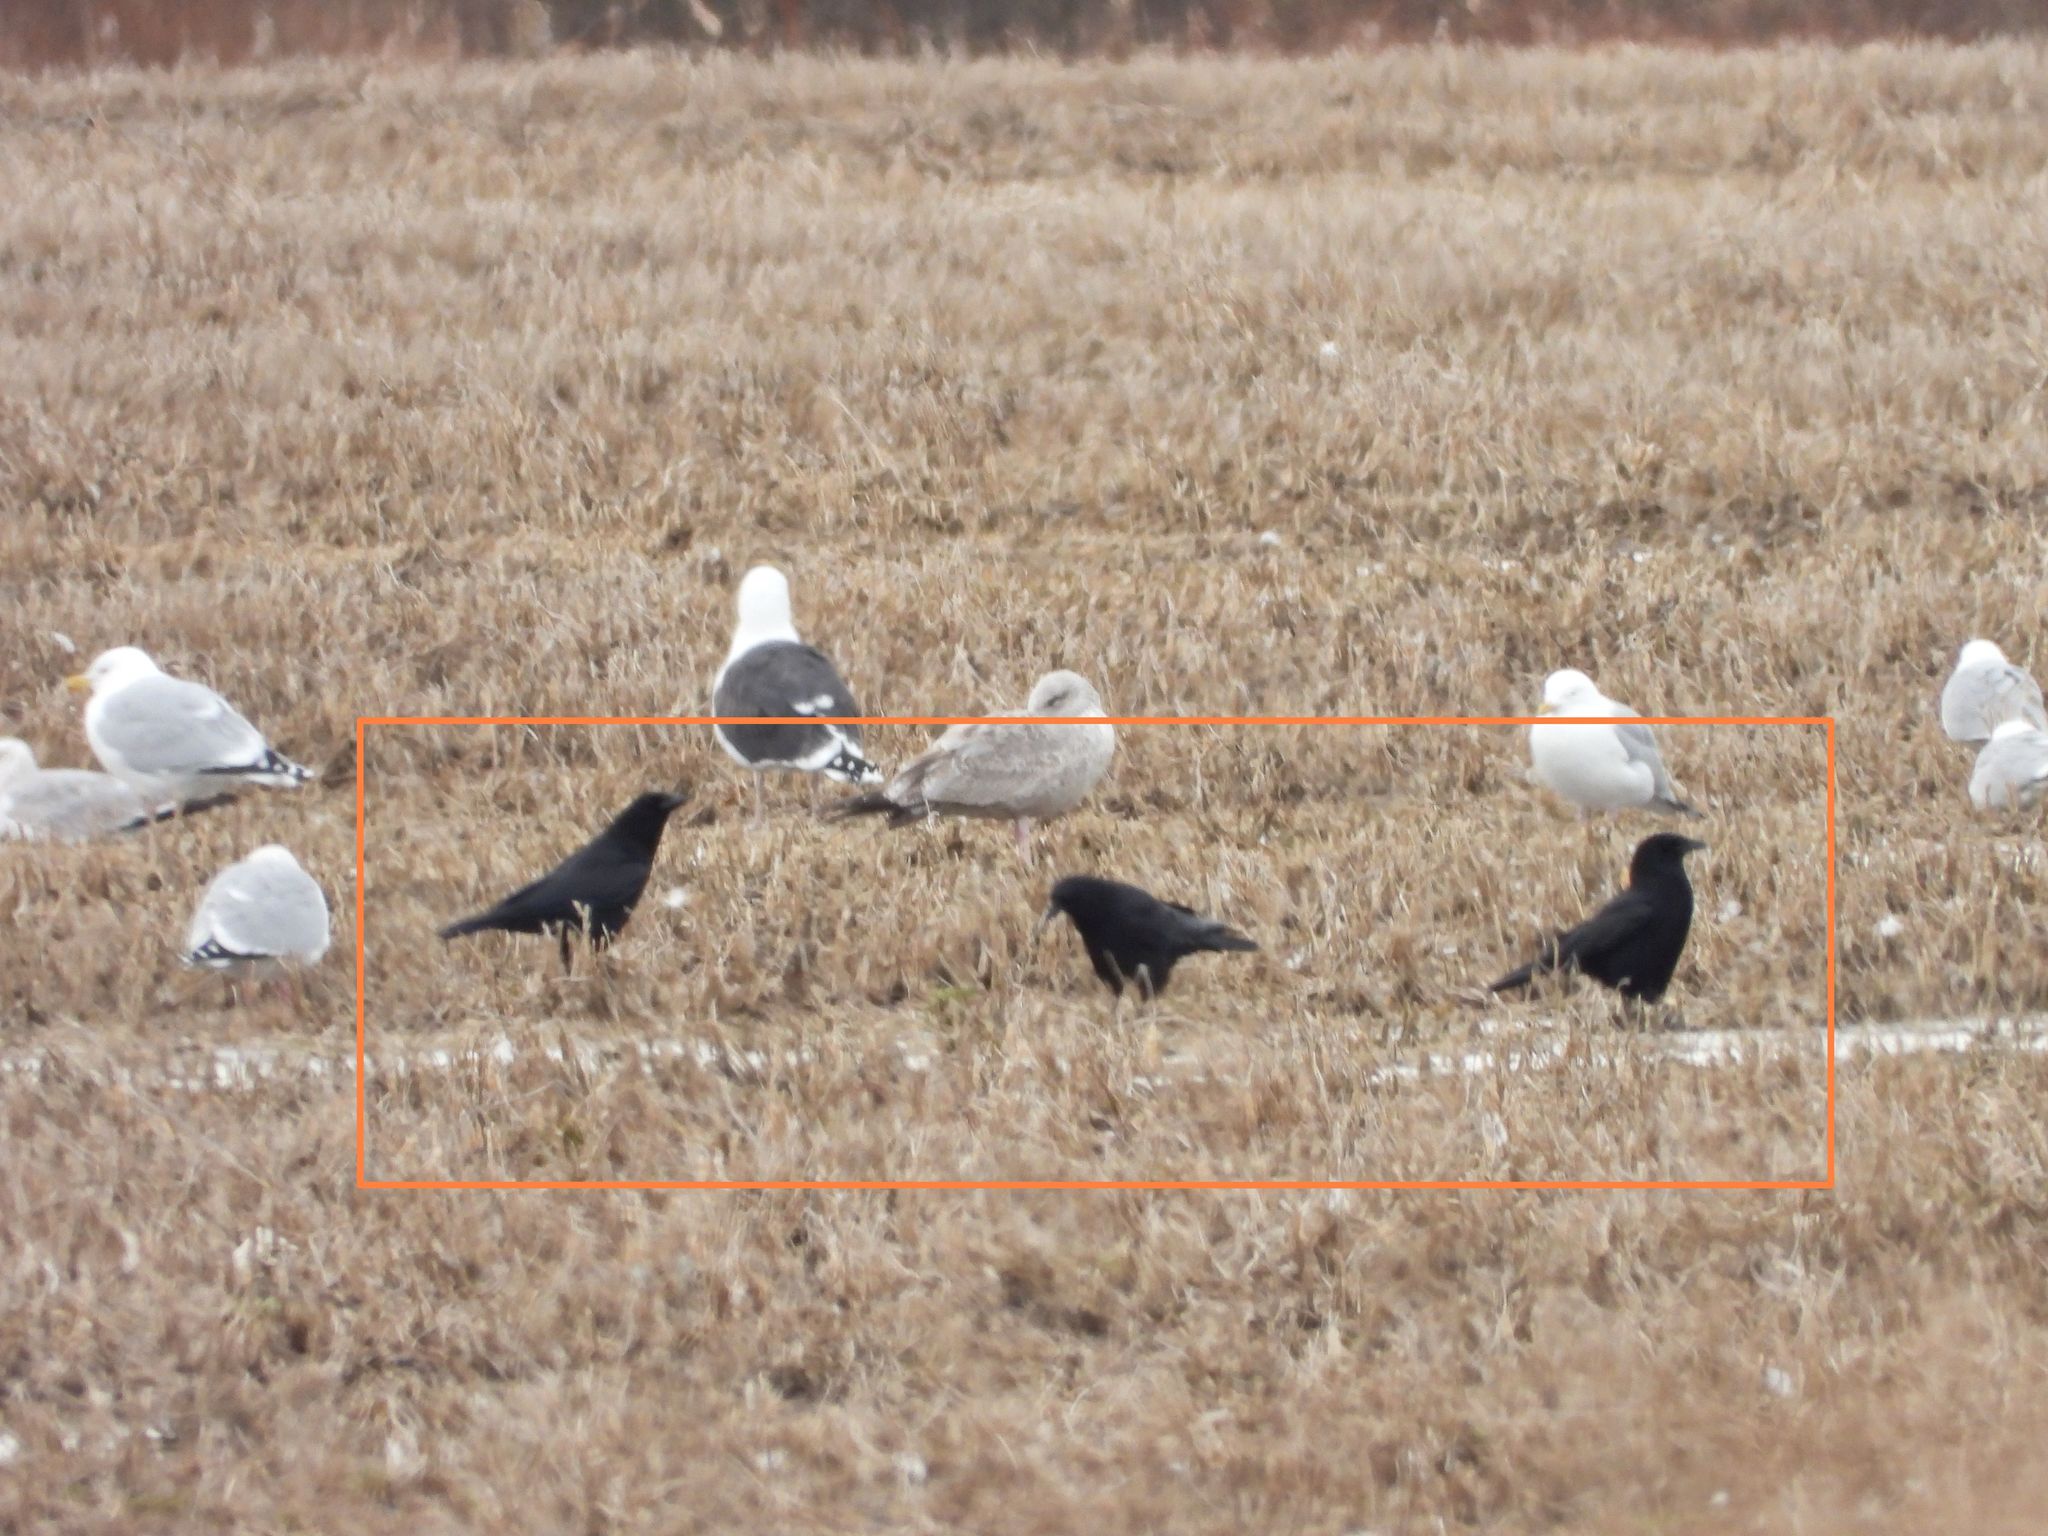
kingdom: Animalia
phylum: Chordata
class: Aves
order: Passeriformes
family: Corvidae
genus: Corvus
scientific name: Corvus brachyrhynchos
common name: American crow
